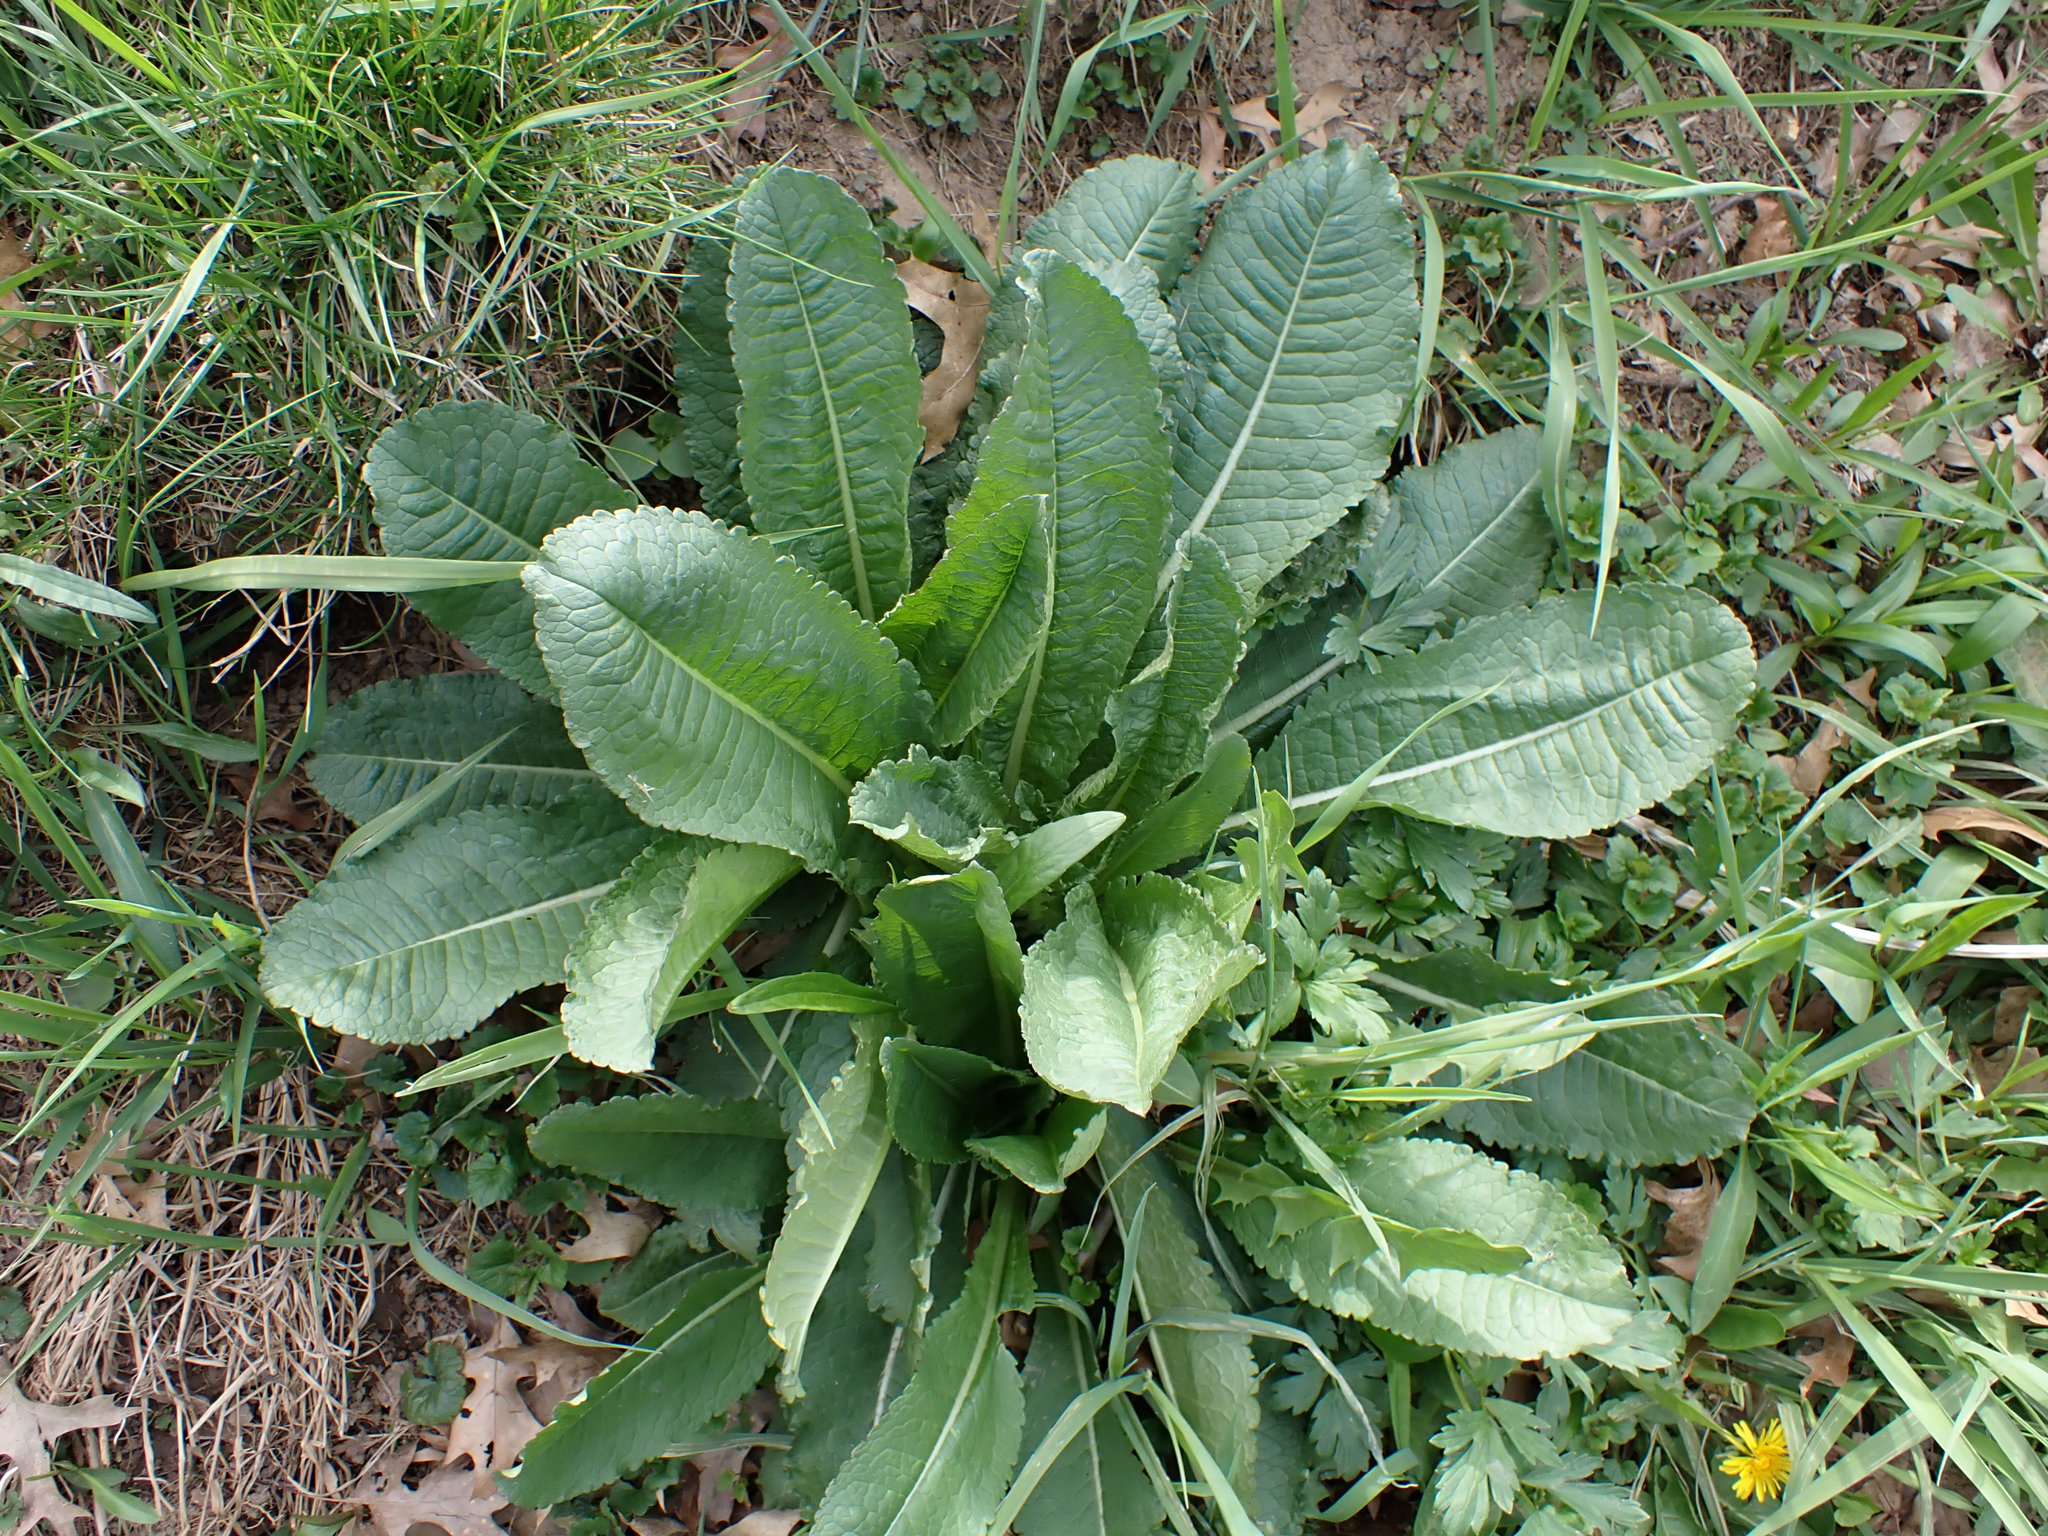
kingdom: Plantae
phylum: Tracheophyta
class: Magnoliopsida
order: Dipsacales
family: Caprifoliaceae
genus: Dipsacus
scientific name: Dipsacus fullonum
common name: Teasel
